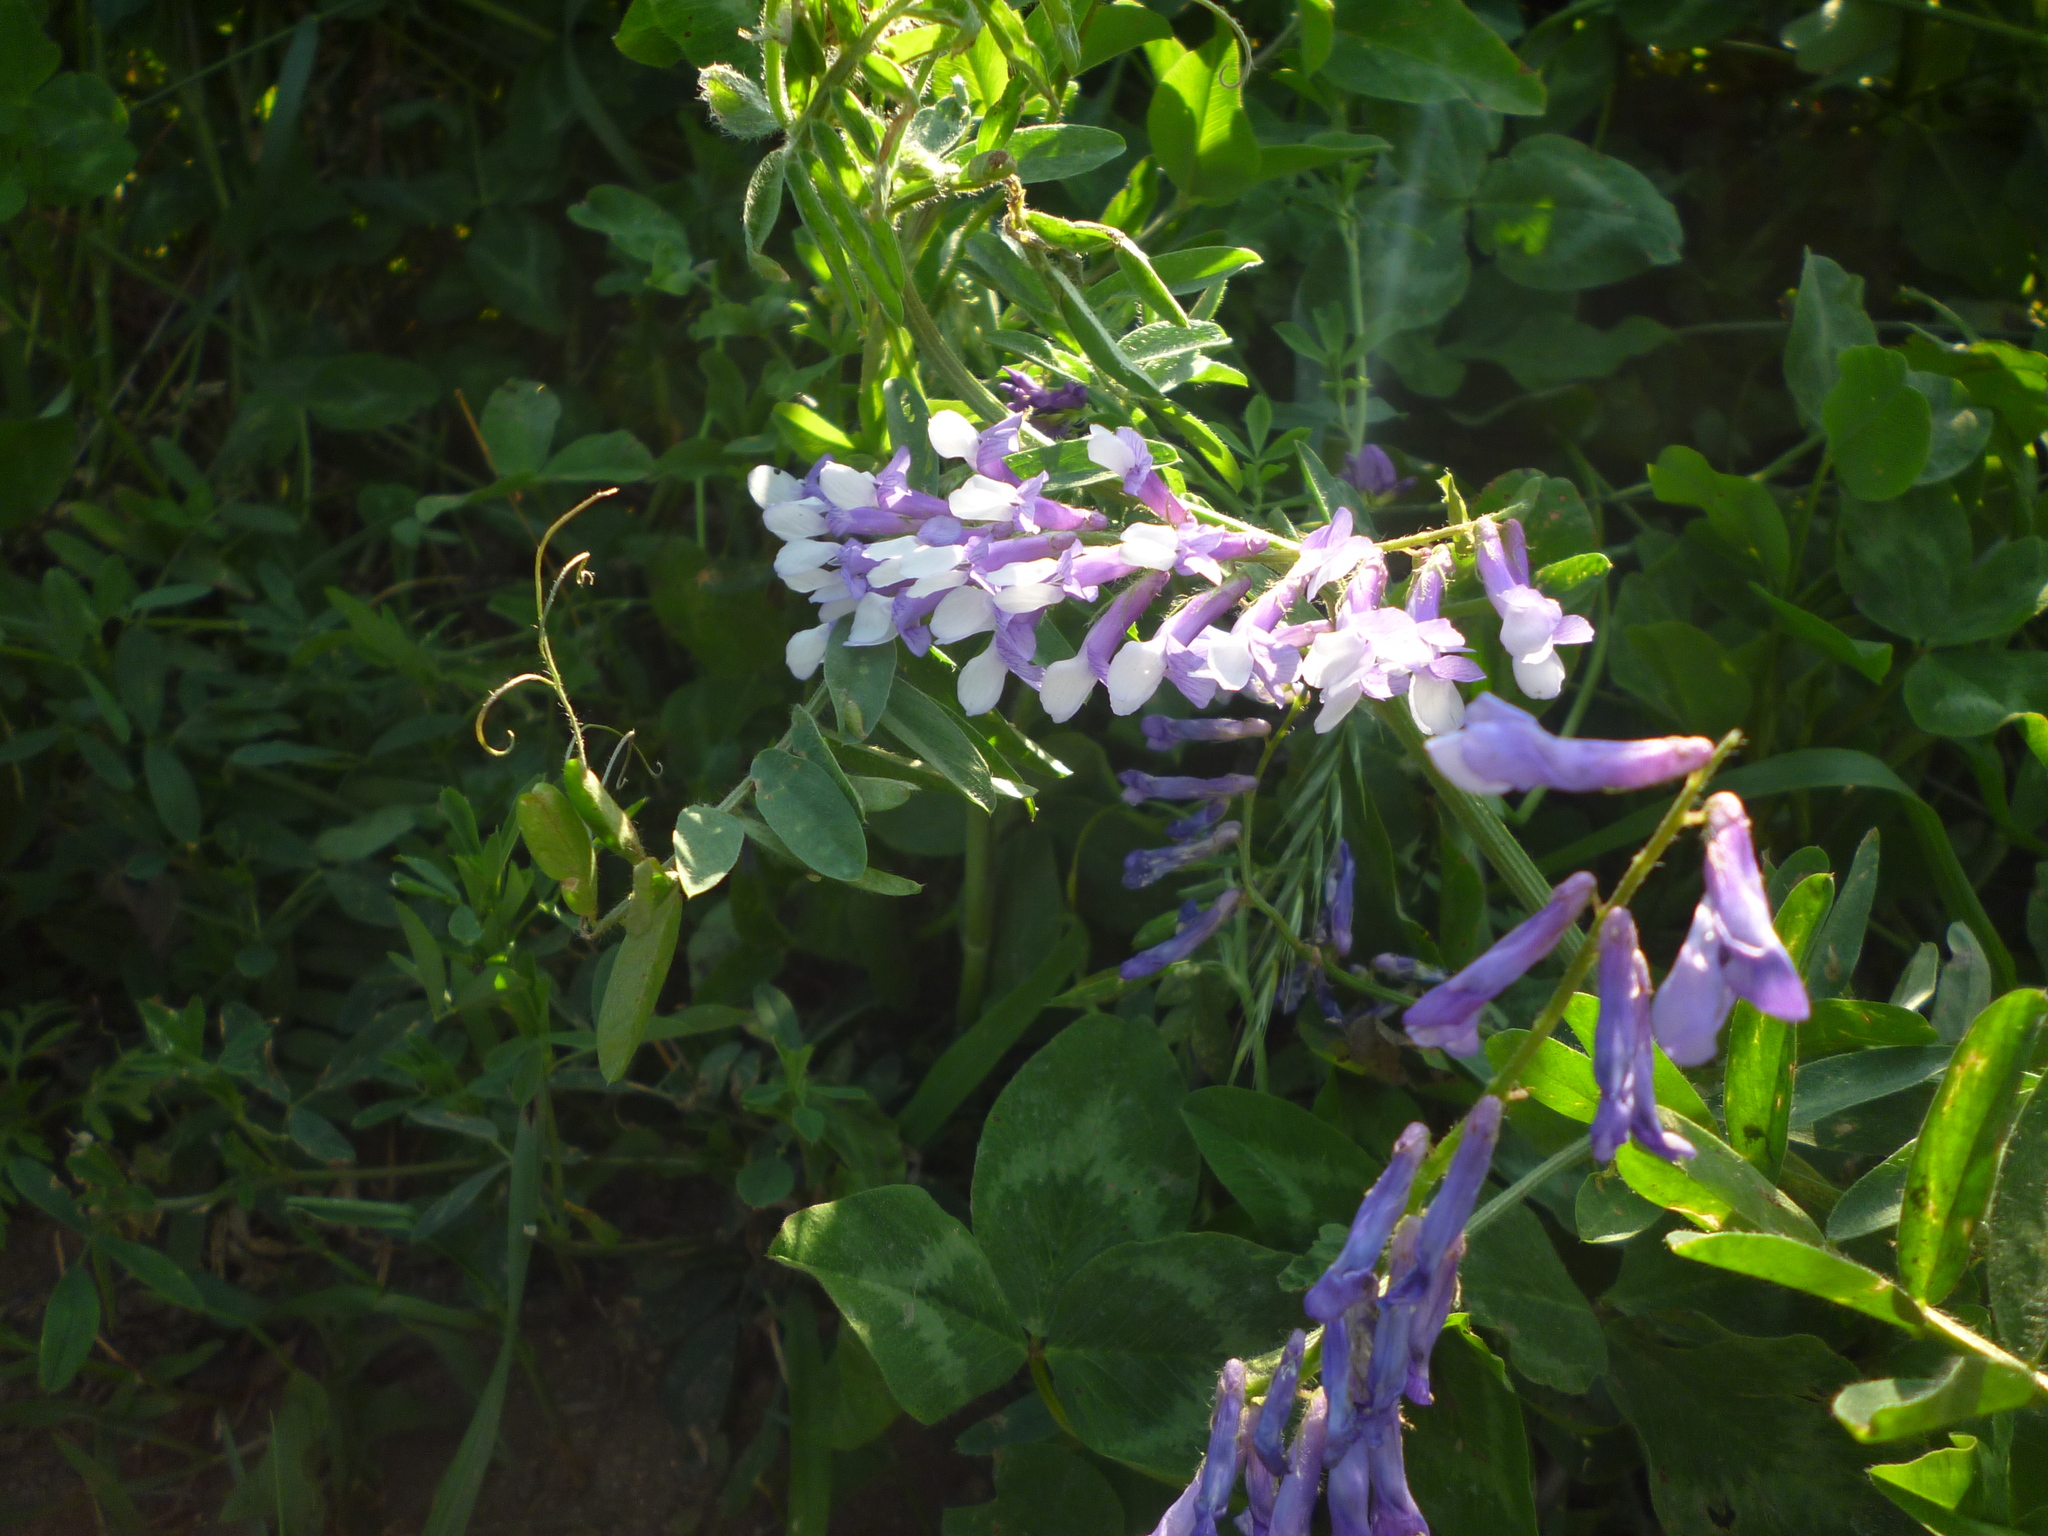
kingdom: Plantae
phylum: Tracheophyta
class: Magnoliopsida
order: Fabales
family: Fabaceae
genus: Vicia
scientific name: Vicia villosa
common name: Fodder vetch
